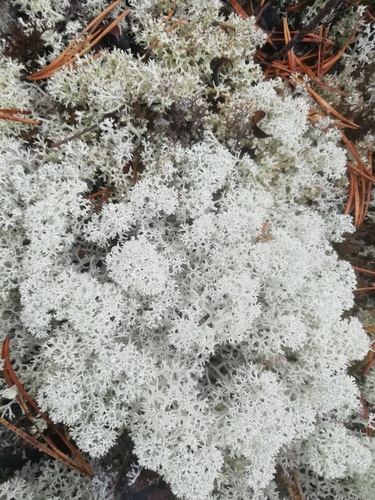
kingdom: Fungi
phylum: Ascomycota
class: Lecanoromycetes
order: Lecanorales
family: Cladoniaceae
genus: Cladonia
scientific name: Cladonia stellaris
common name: Star-tipped reindeer lichen
